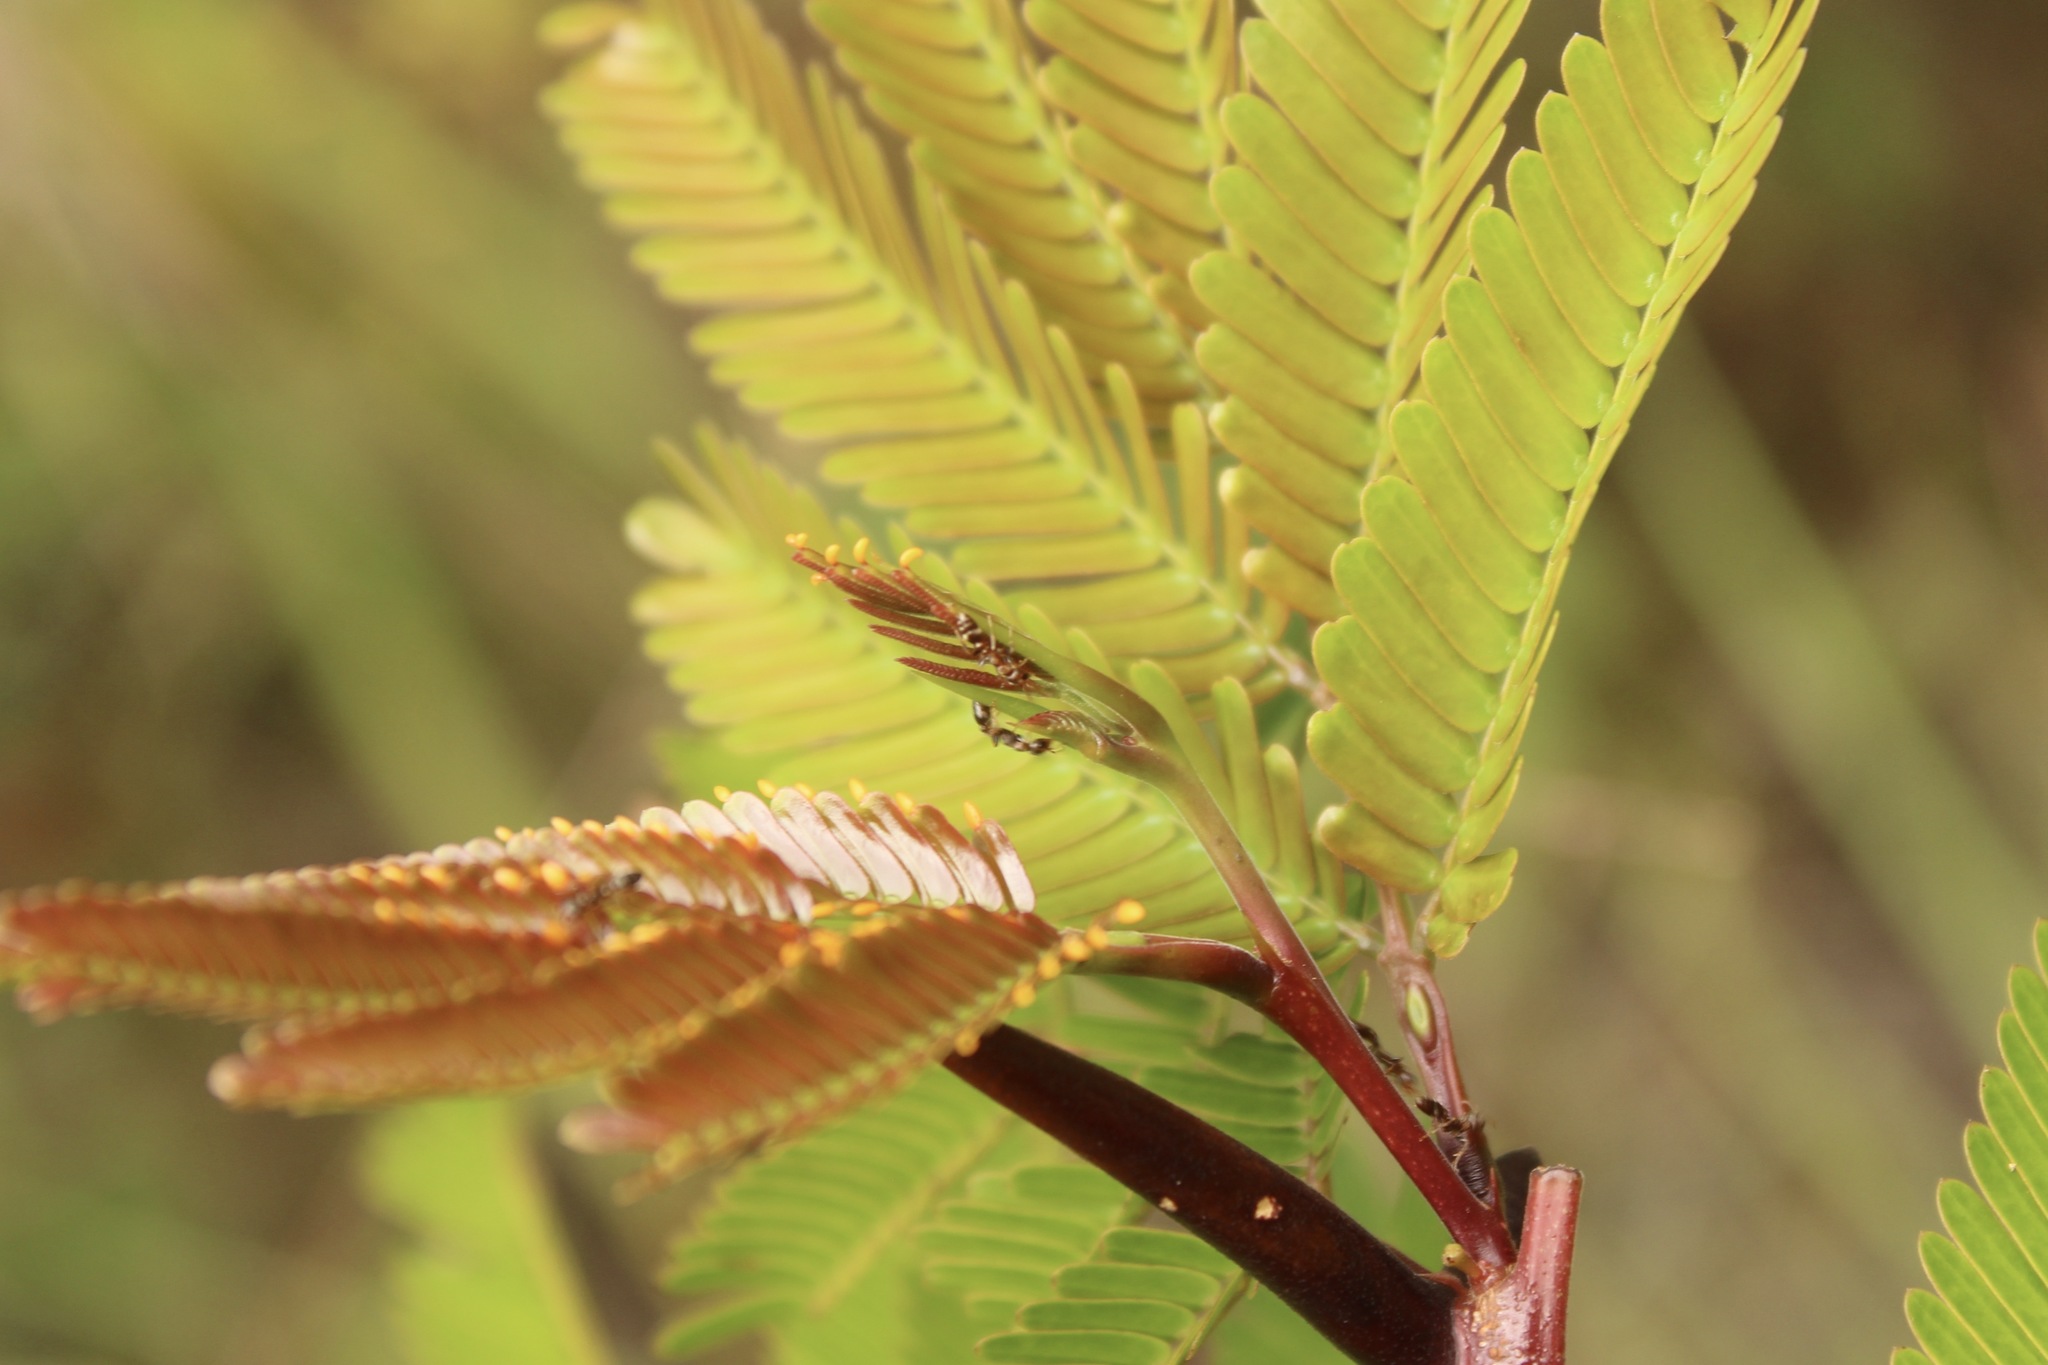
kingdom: Animalia
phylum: Arthropoda
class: Insecta
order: Hymenoptera
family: Formicidae
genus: Pseudomyrmex
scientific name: Pseudomyrmex ferrugineus
